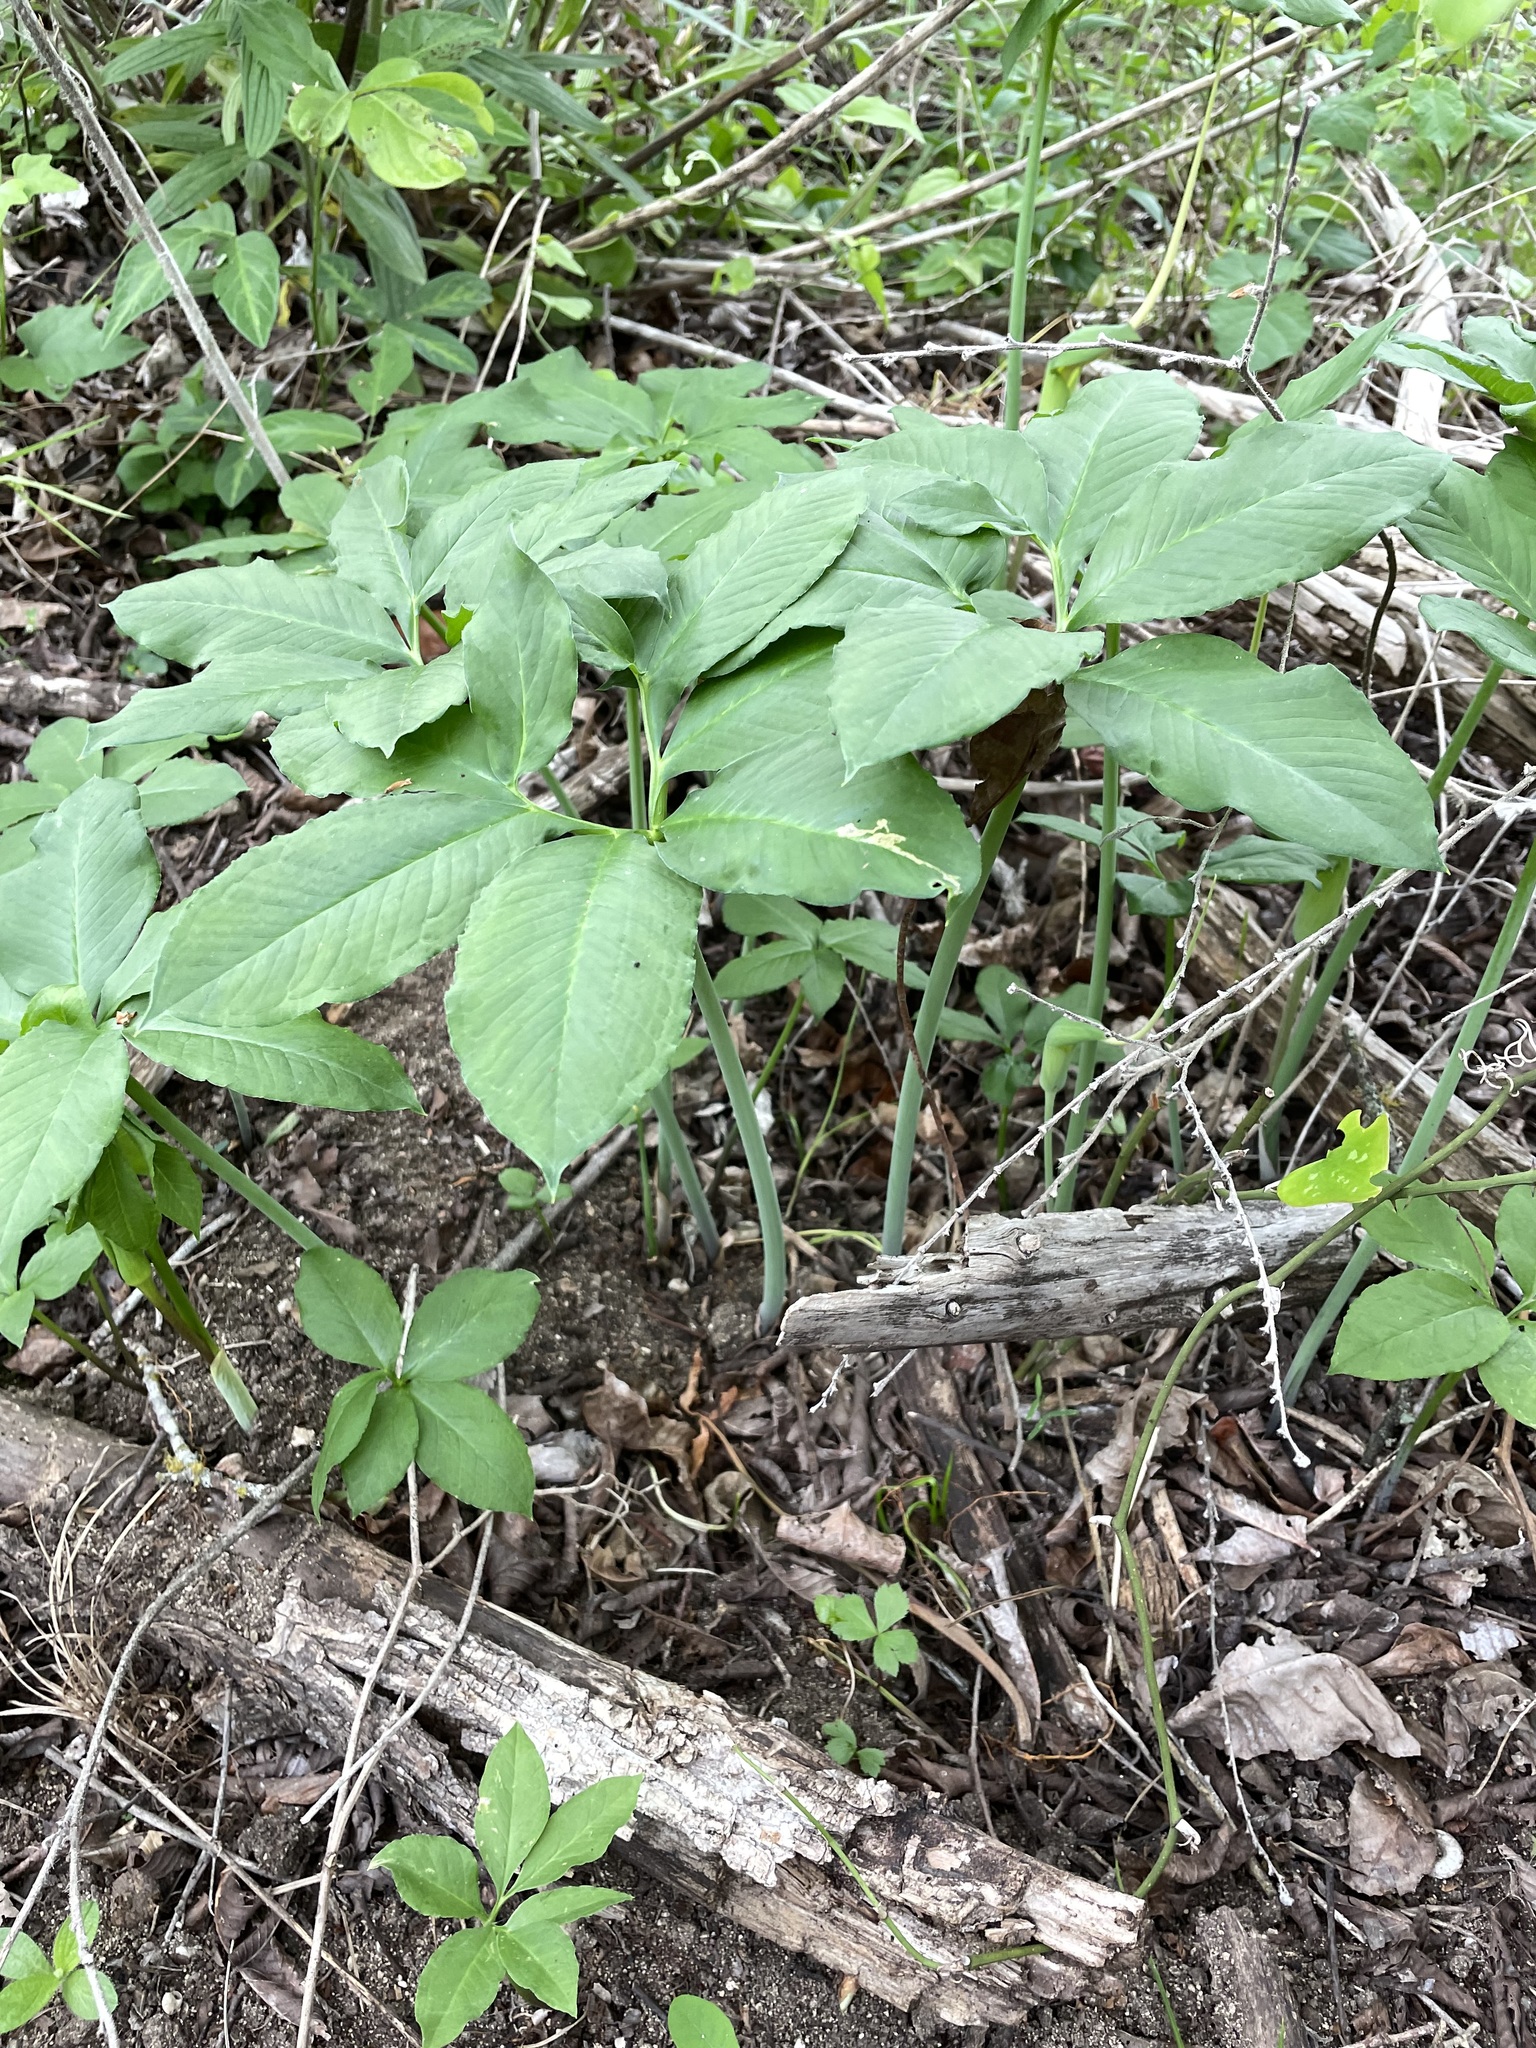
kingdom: Plantae
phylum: Tracheophyta
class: Liliopsida
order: Alismatales
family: Araceae
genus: Arisaema
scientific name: Arisaema dracontium
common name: Dragon-arum
